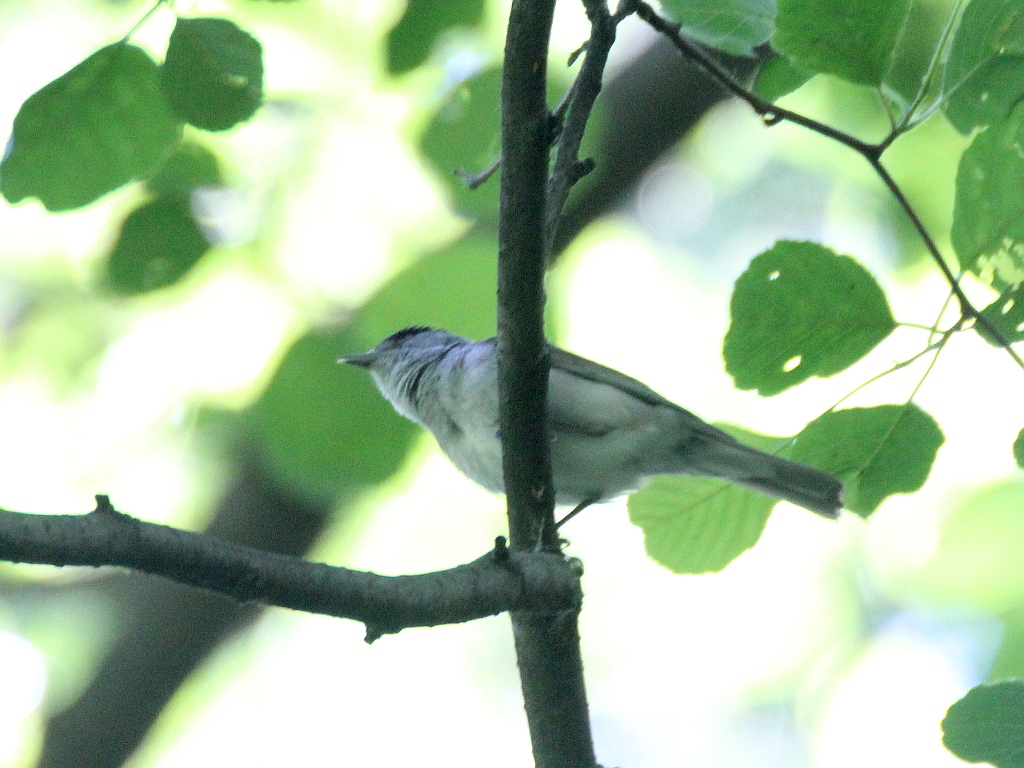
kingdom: Animalia
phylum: Chordata
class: Aves
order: Passeriformes
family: Sylviidae
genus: Sylvia
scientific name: Sylvia atricapilla
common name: Eurasian blackcap
